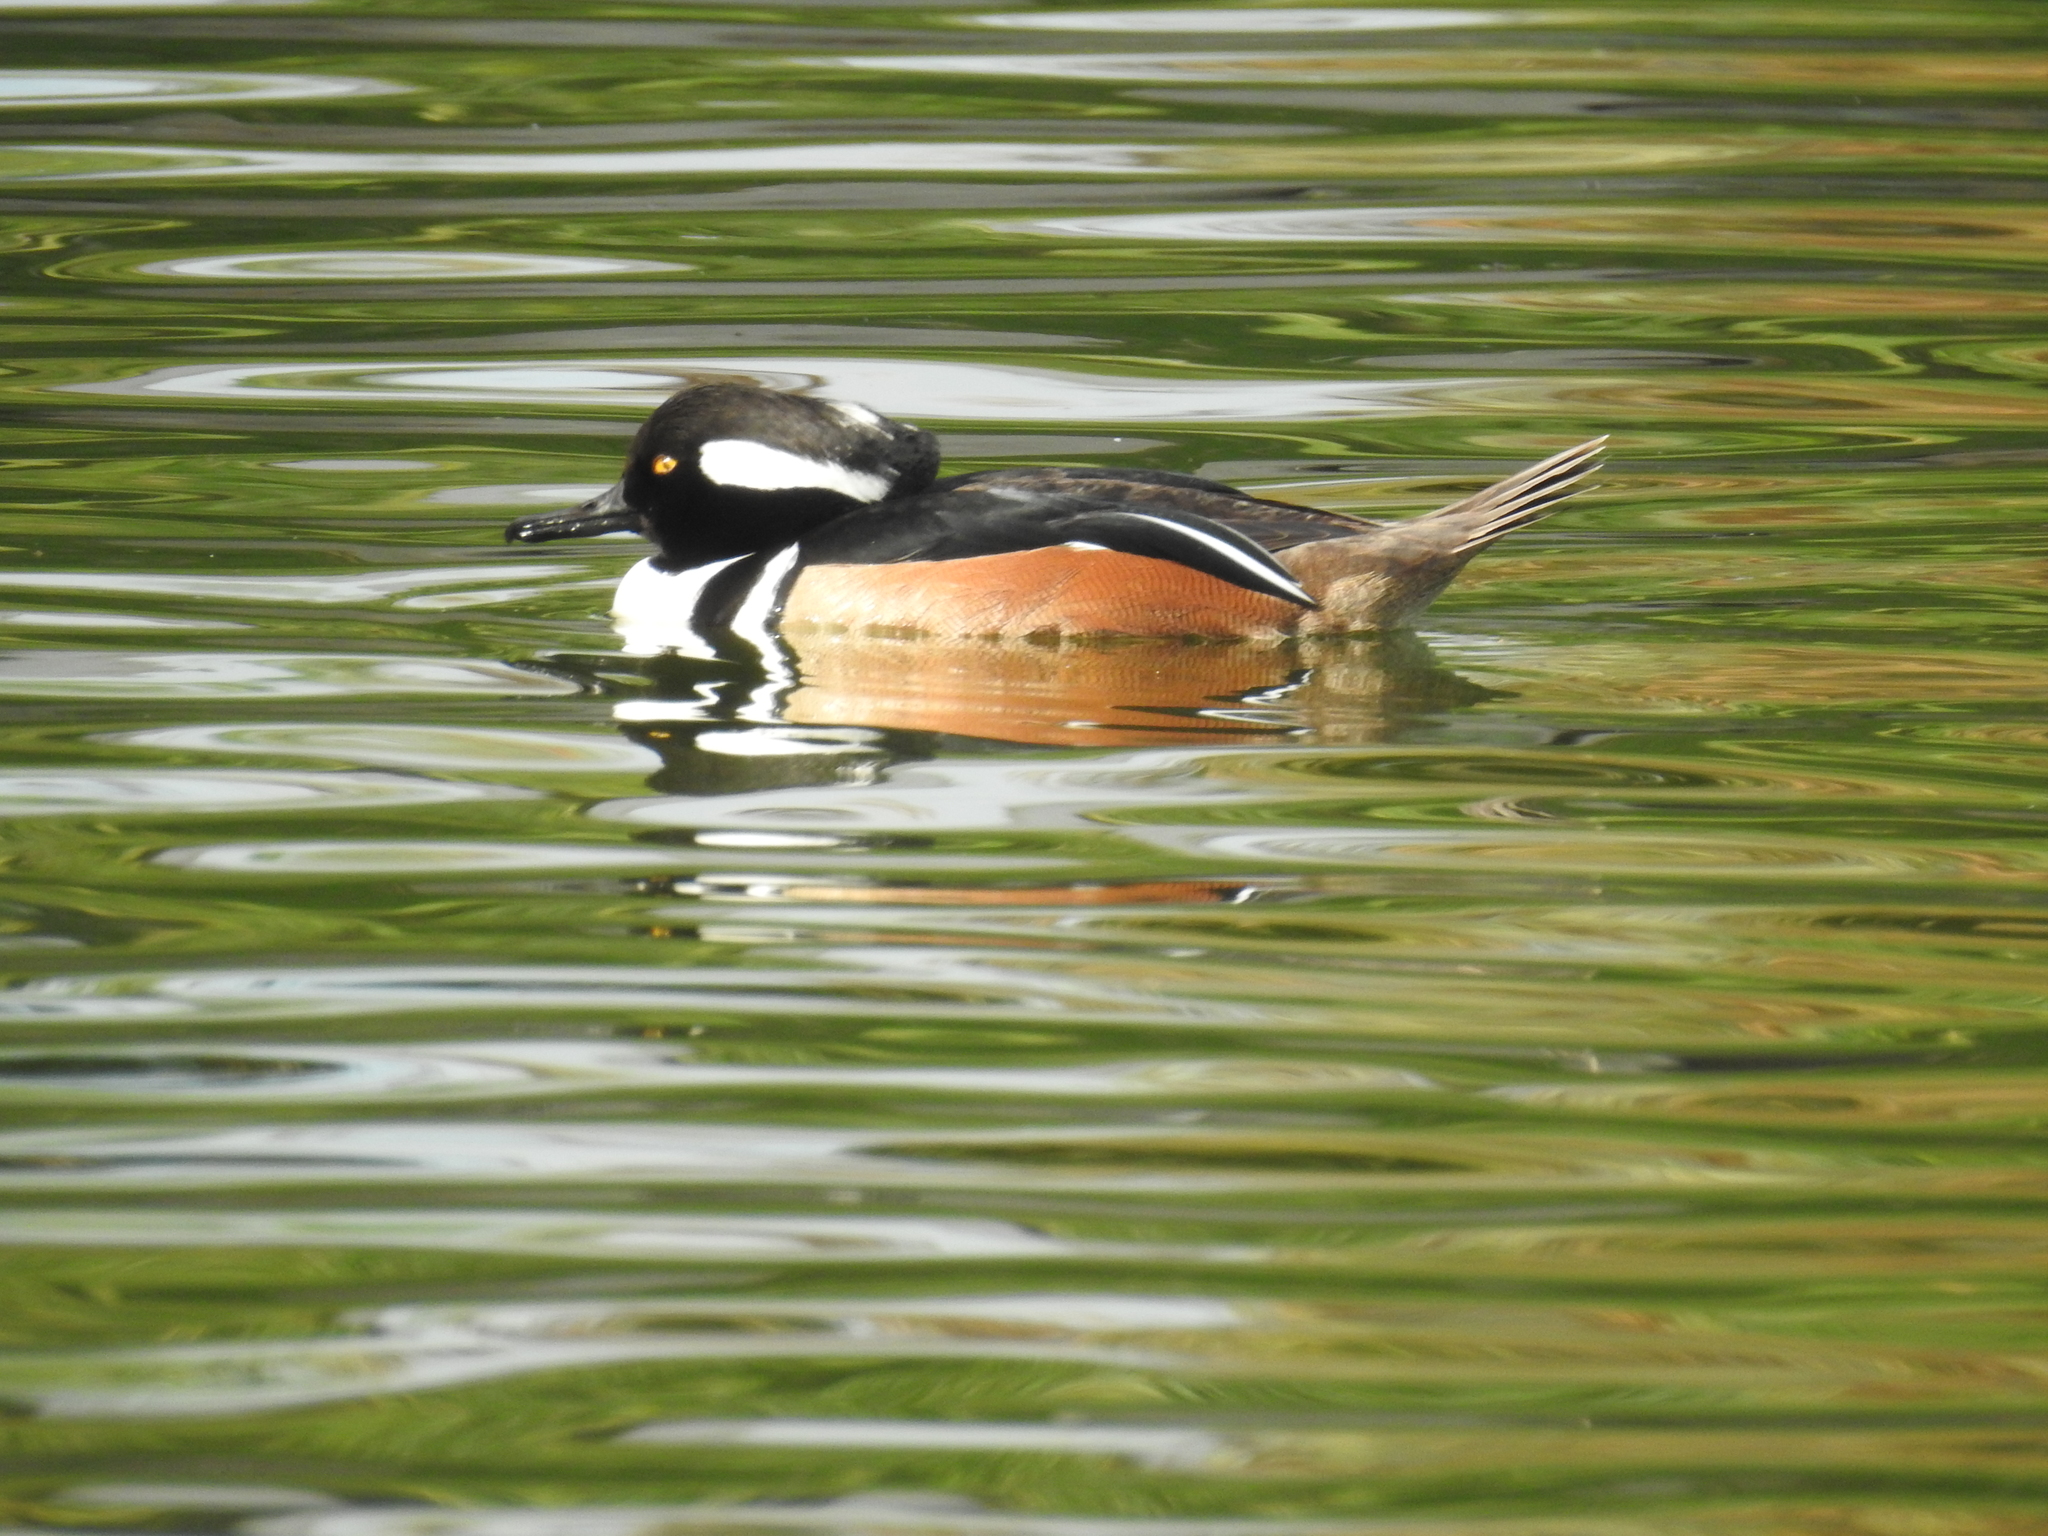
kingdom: Animalia
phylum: Chordata
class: Aves
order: Anseriformes
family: Anatidae
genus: Lophodytes
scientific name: Lophodytes cucullatus
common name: Hooded merganser
